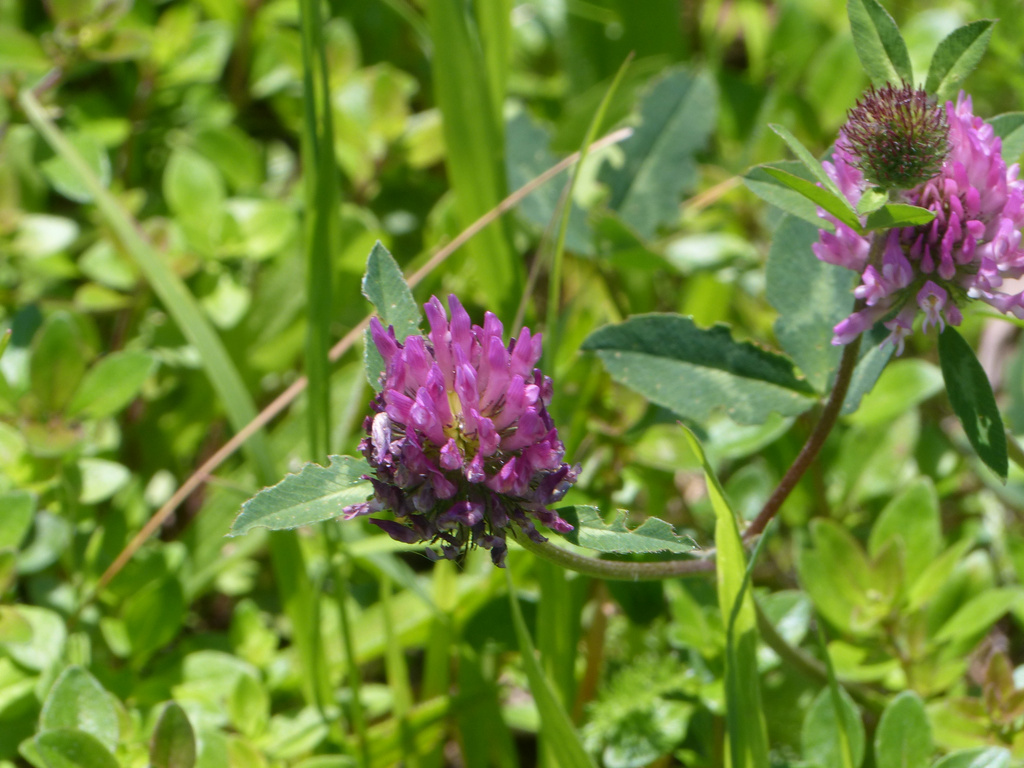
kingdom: Plantae
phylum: Tracheophyta
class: Magnoliopsida
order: Fabales
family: Fabaceae
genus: Trifolium
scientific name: Trifolium pratense
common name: Red clover
